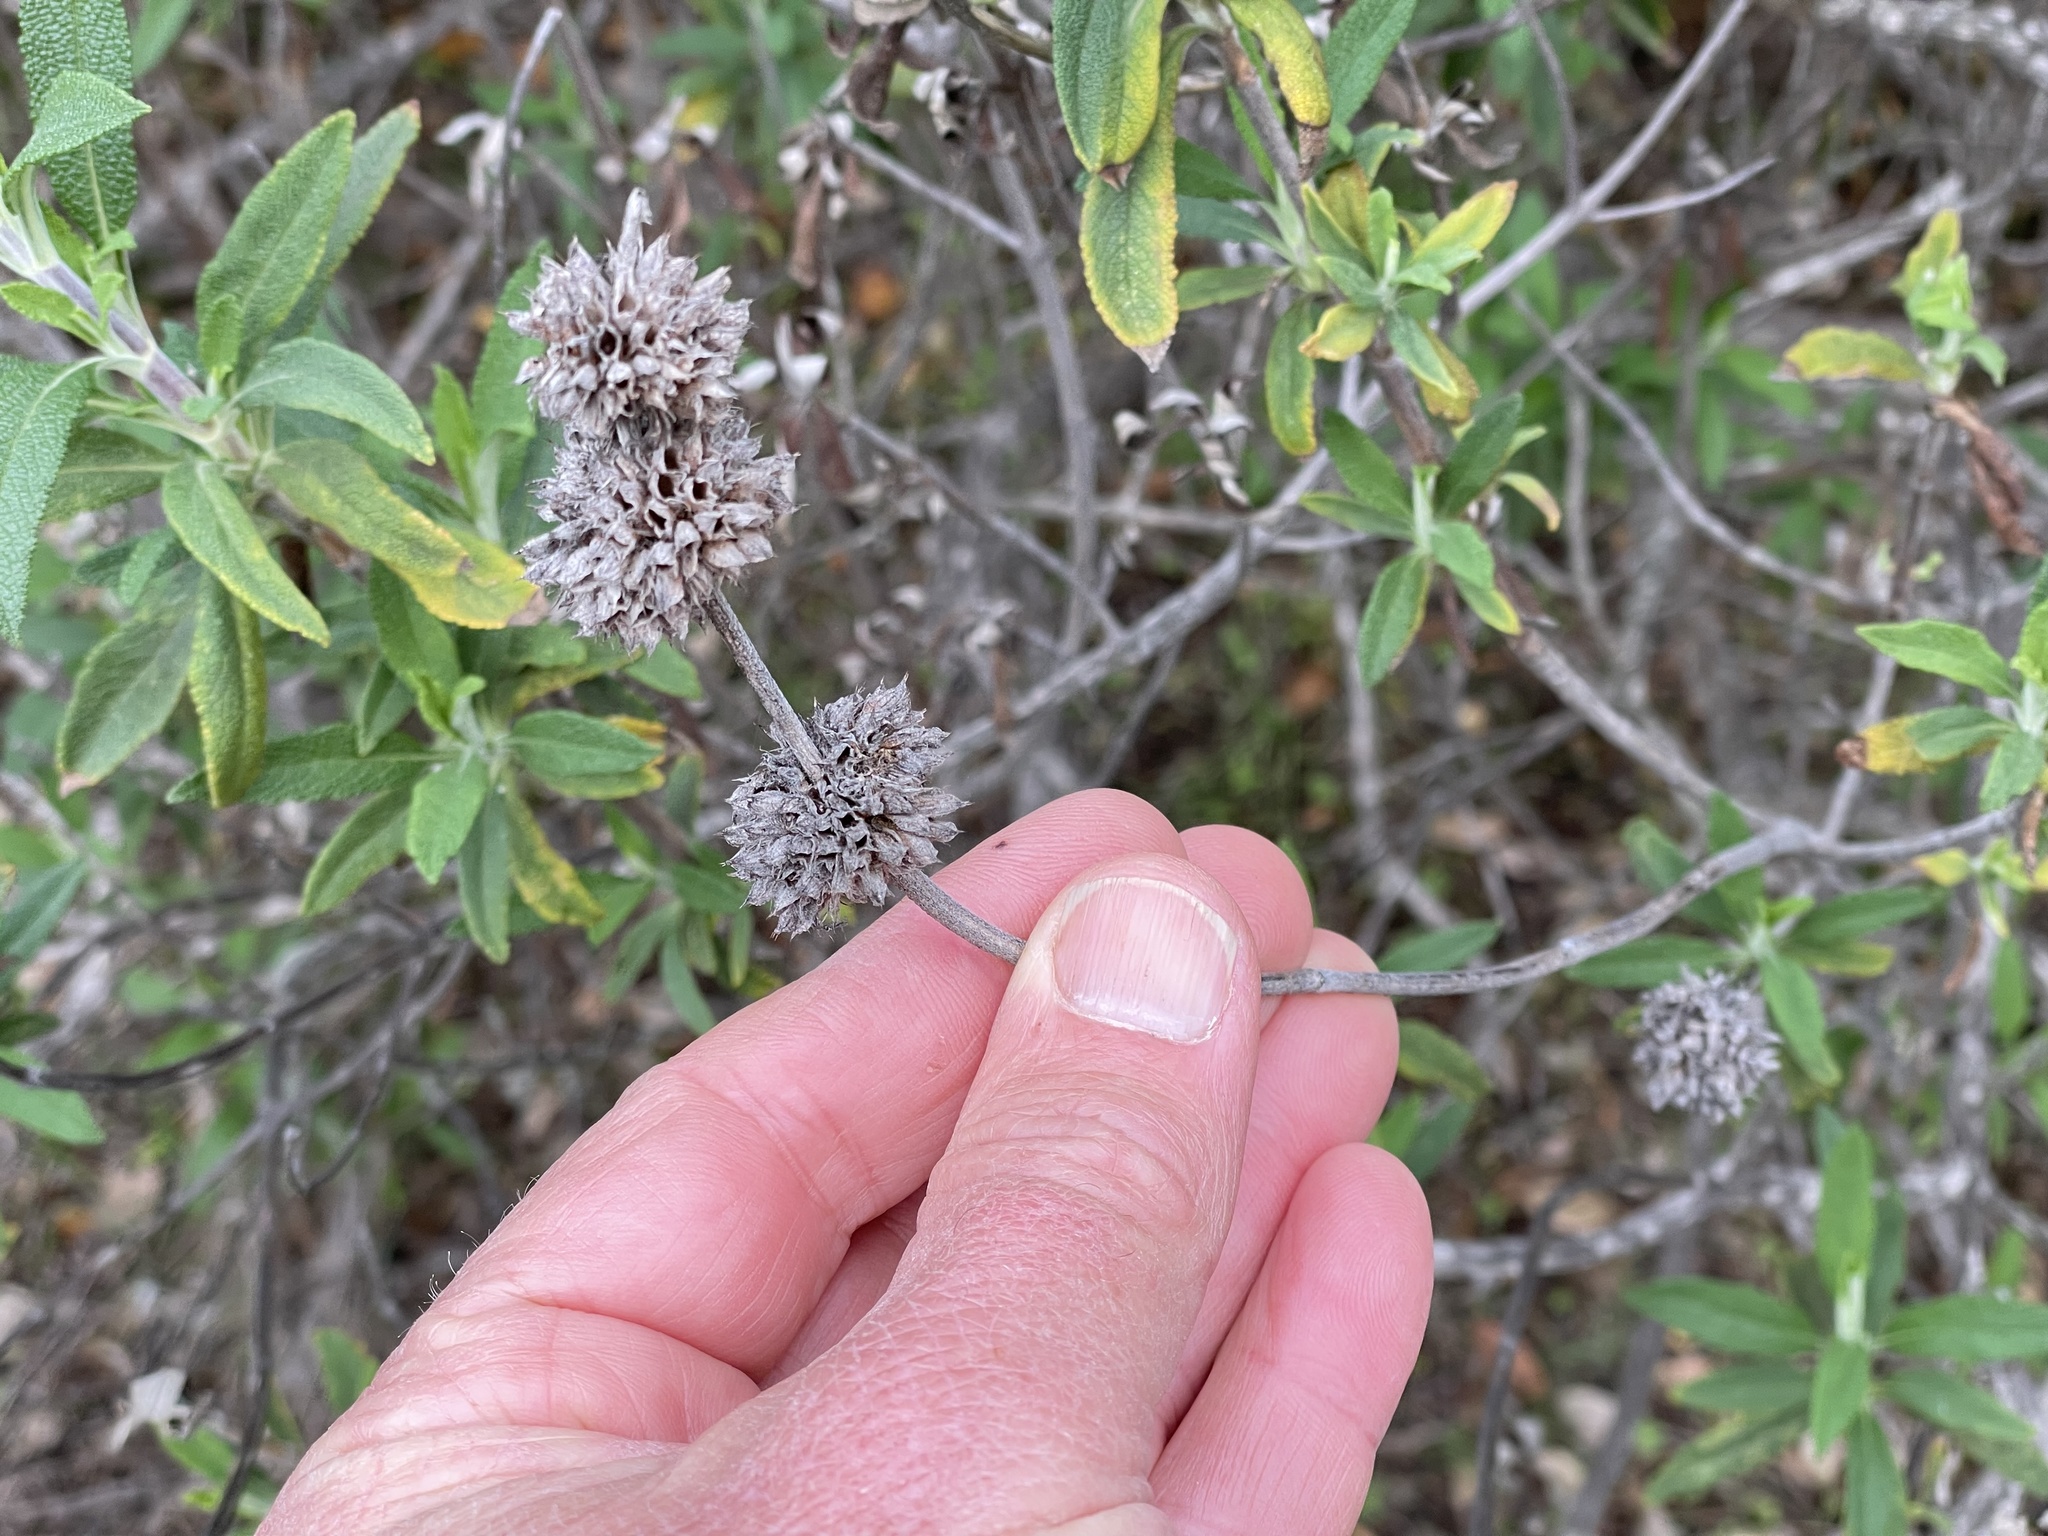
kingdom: Plantae
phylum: Tracheophyta
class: Magnoliopsida
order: Lamiales
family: Lamiaceae
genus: Salvia
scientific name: Salvia mellifera
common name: Black sage
